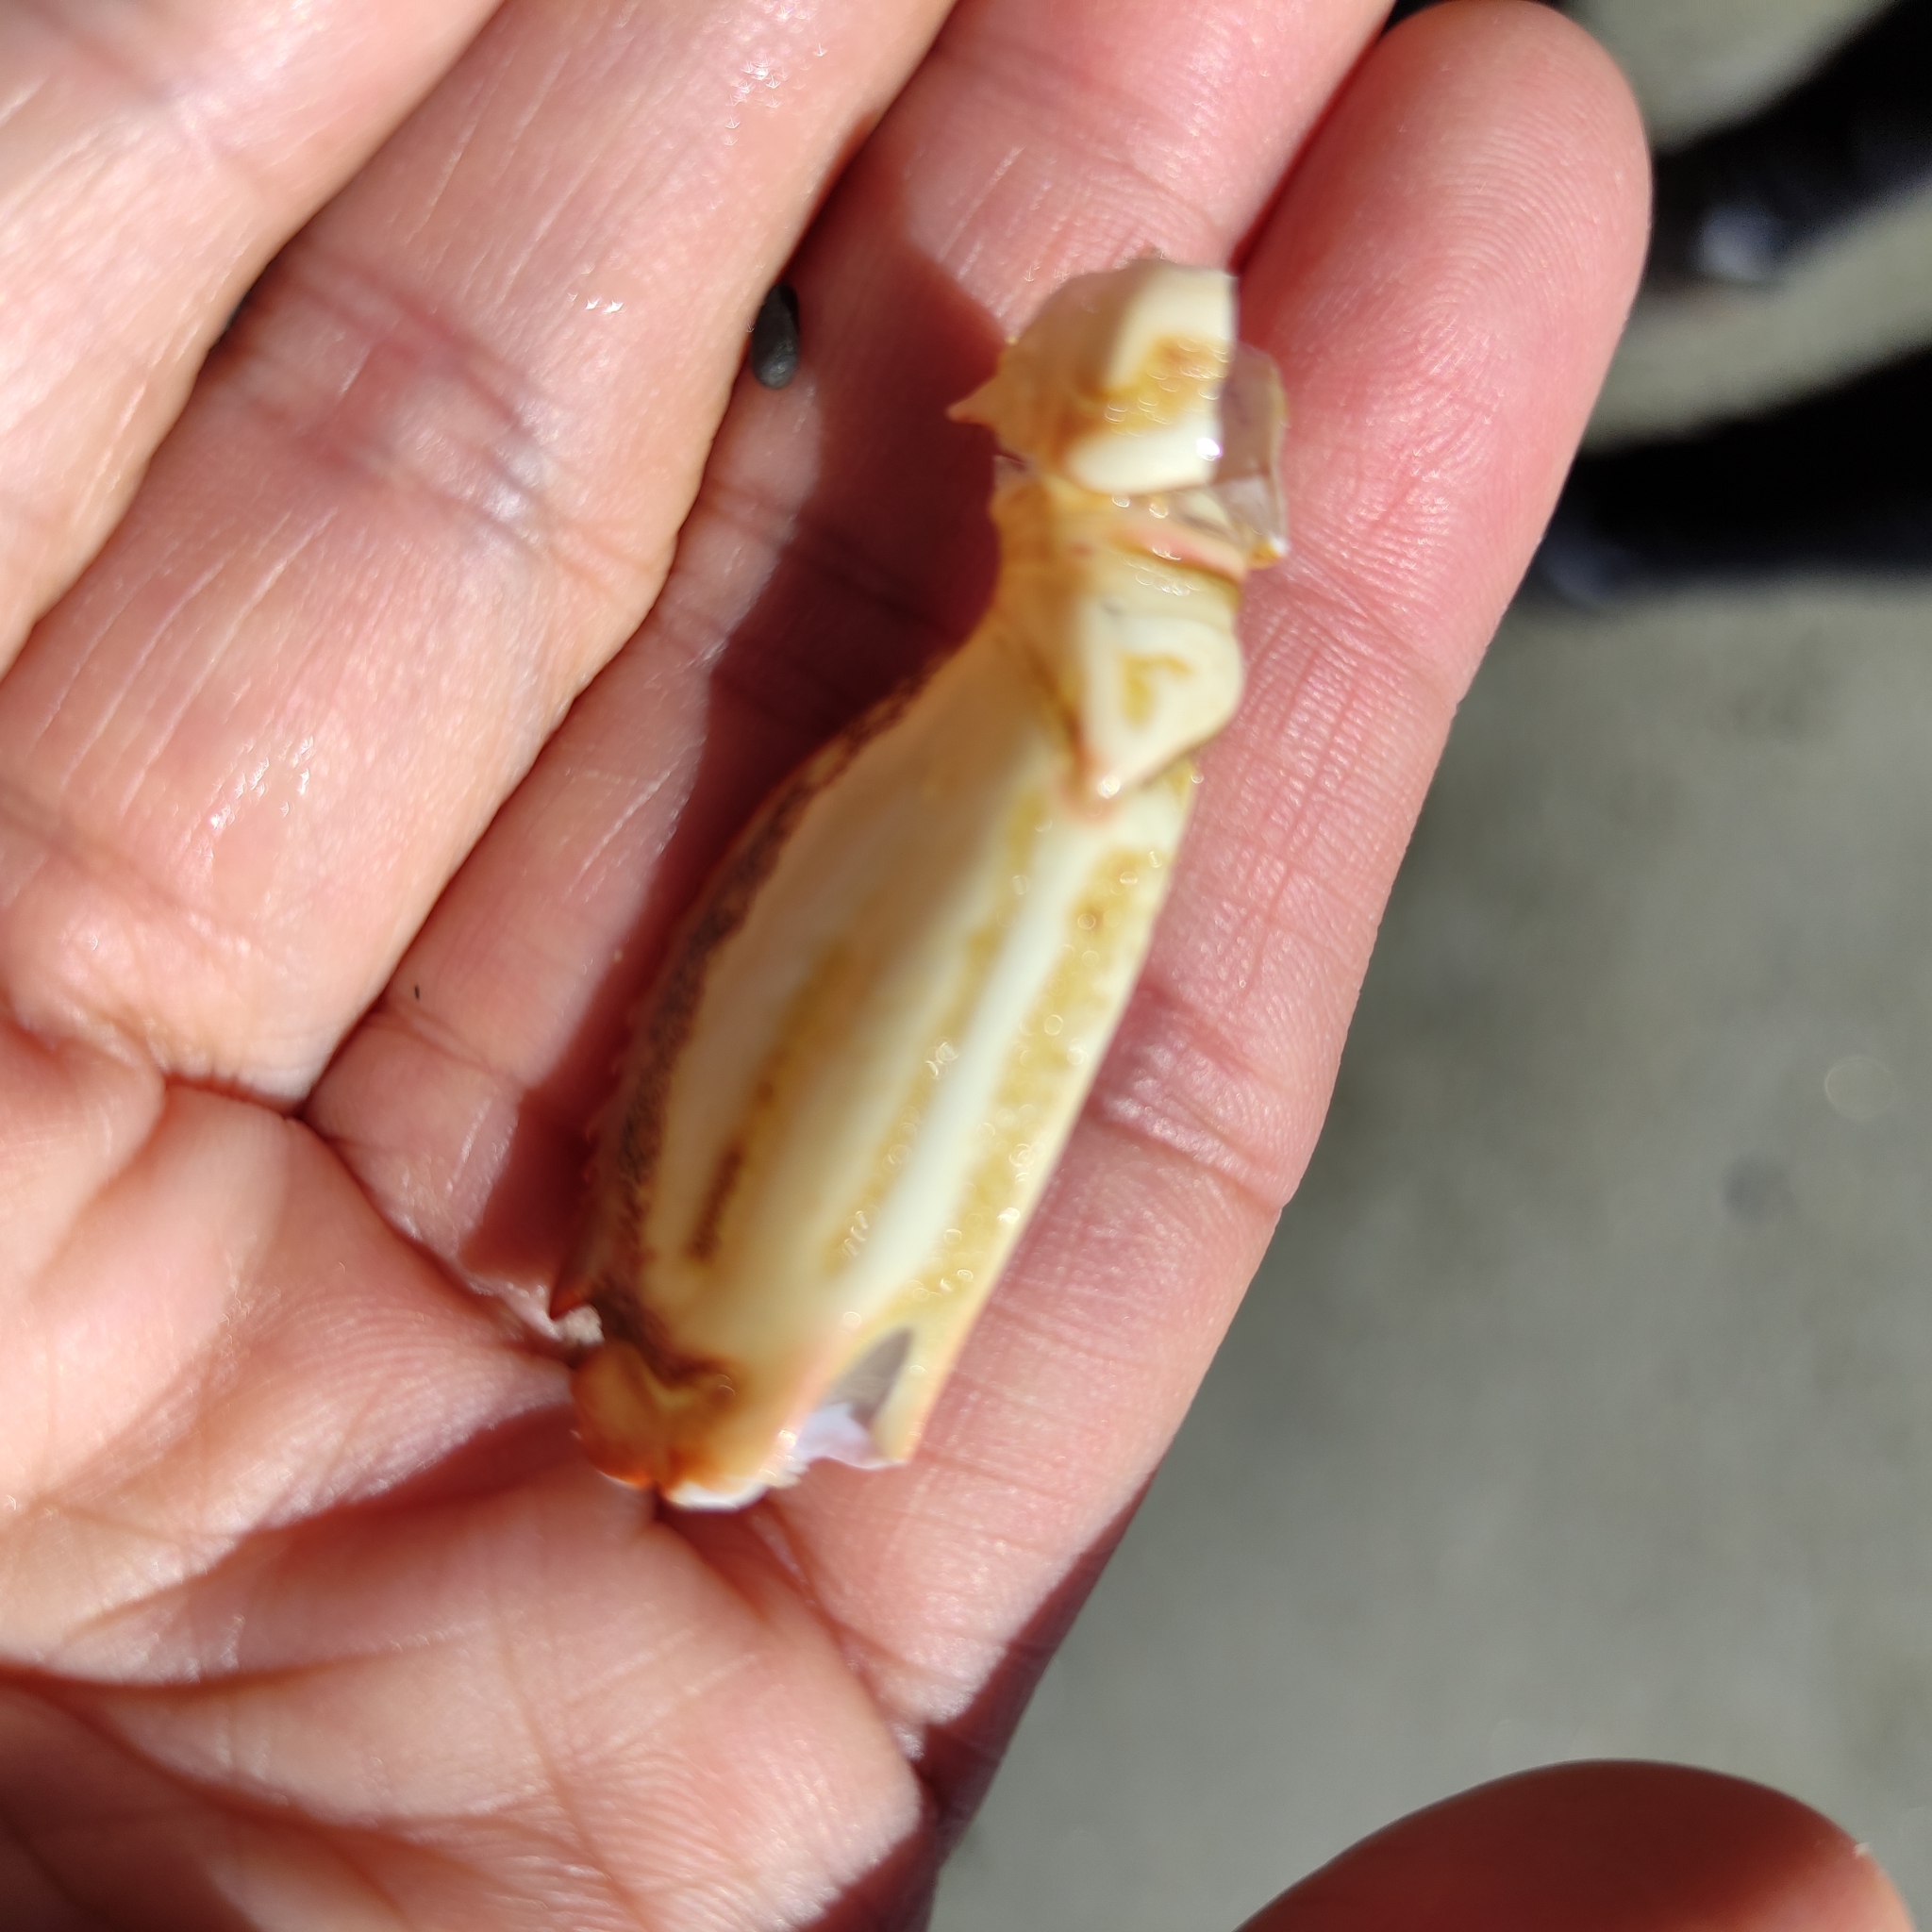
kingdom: Animalia
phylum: Arthropoda
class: Malacostraca
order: Decapoda
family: Plagusiidae
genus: Guinusia
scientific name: Guinusia chabrus
